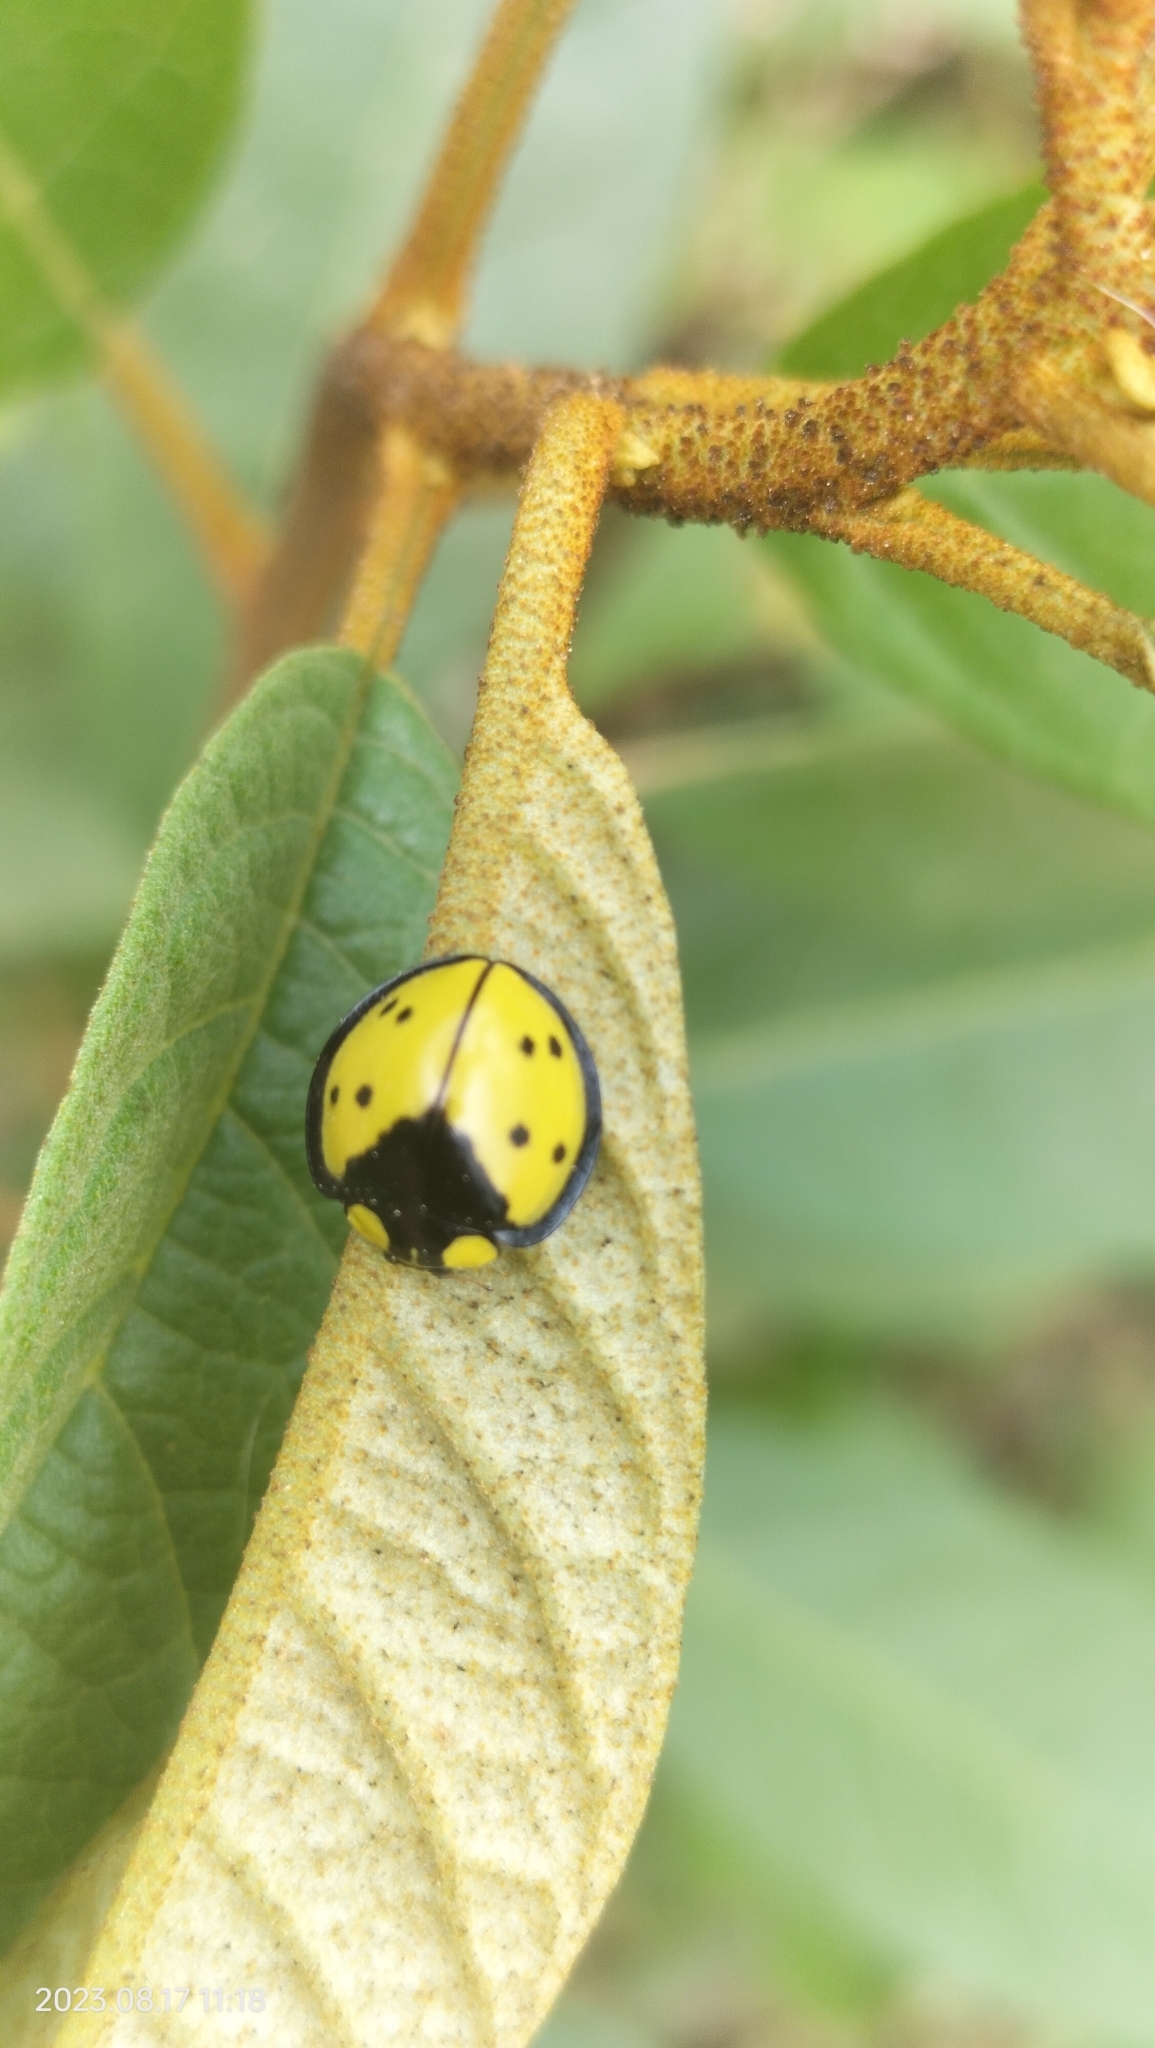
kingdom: Animalia
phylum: Arthropoda
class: Insecta
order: Coleoptera
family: Coccinellidae
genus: Neda
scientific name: Neda boliviana
